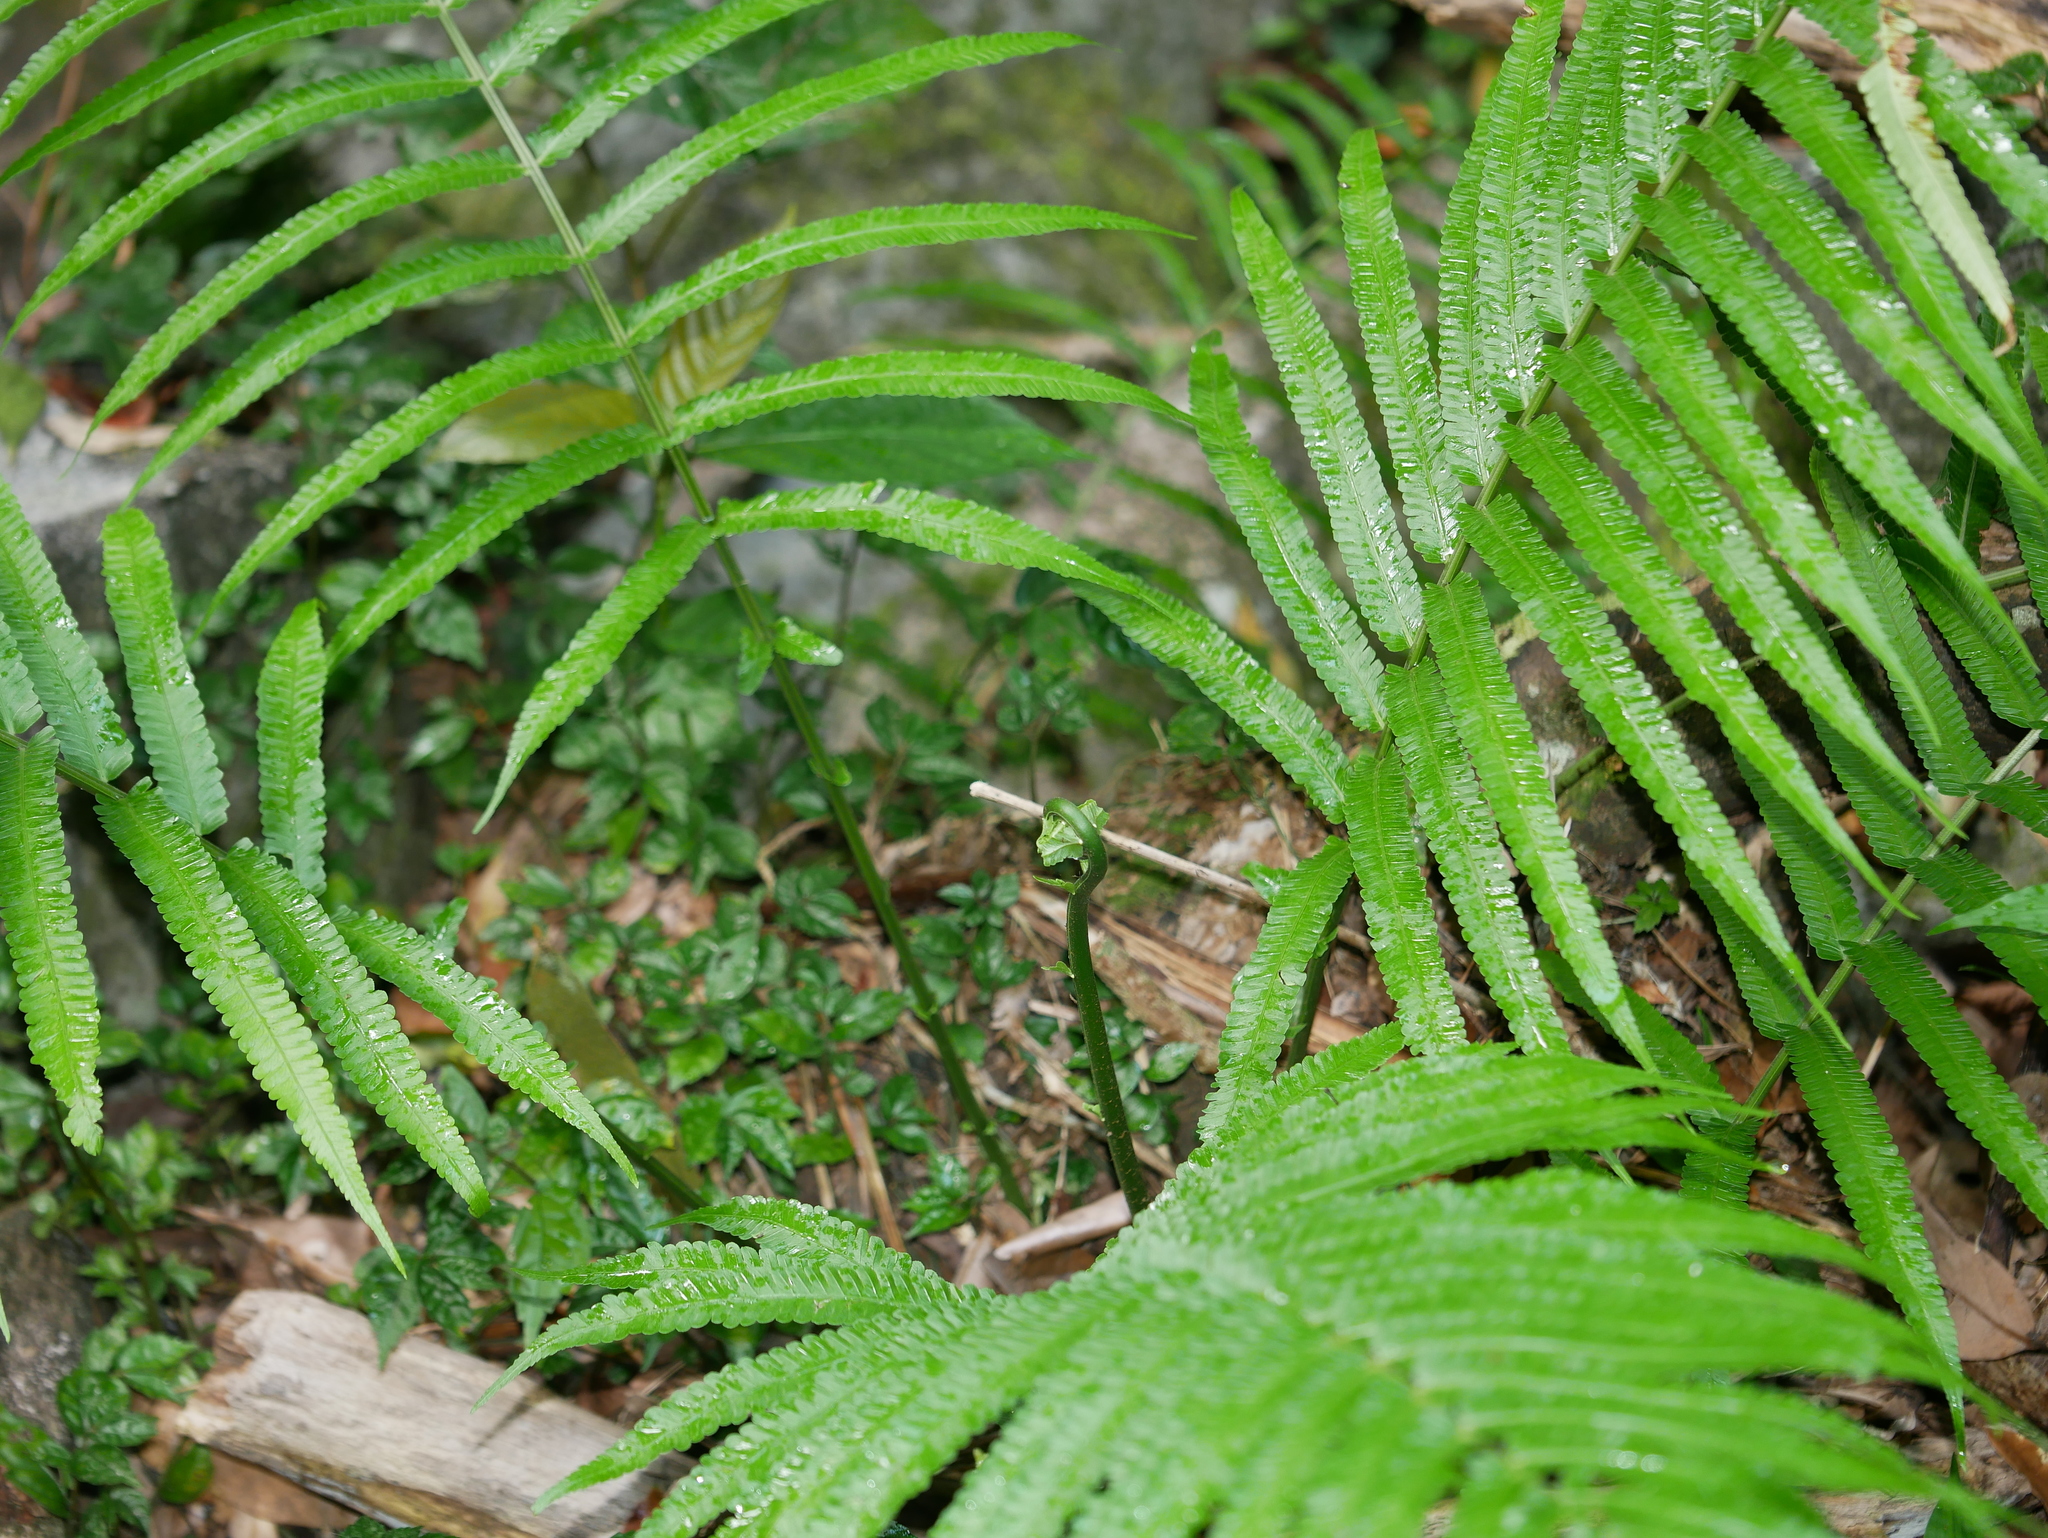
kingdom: Plantae
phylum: Tracheophyta
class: Polypodiopsida
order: Polypodiales
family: Thelypteridaceae
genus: Reholttumia
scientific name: Reholttumia truncata
